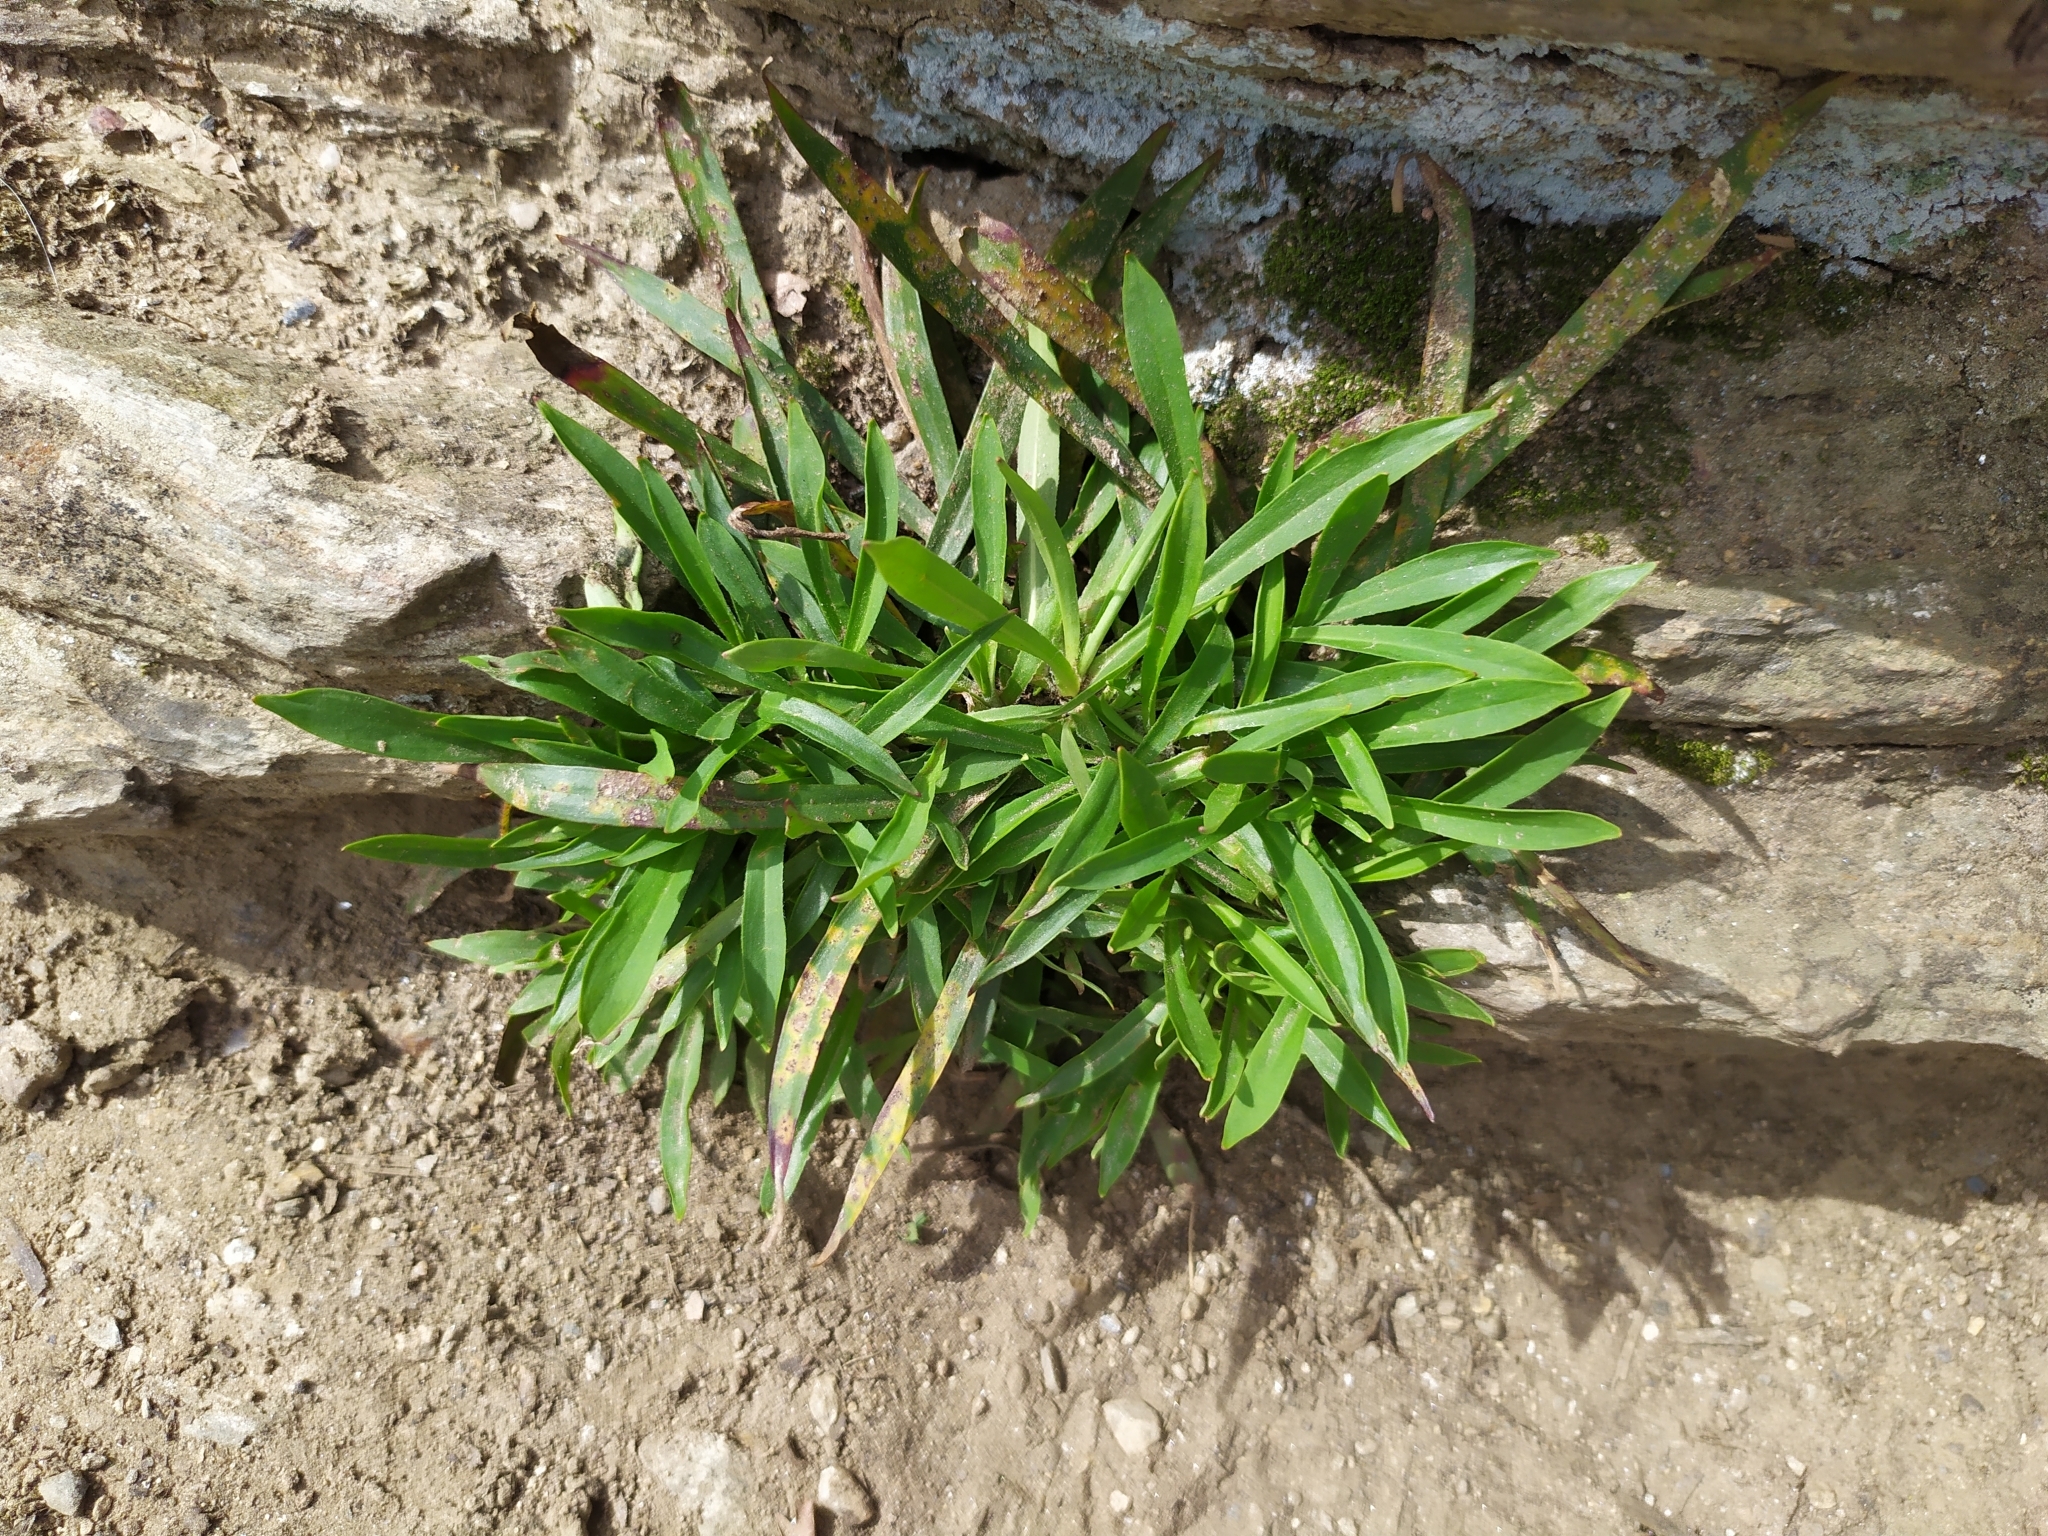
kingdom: Plantae
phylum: Tracheophyta
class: Magnoliopsida
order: Caryophyllales
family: Caryophyllaceae
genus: Viscaria
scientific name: Viscaria vulgaris
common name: Clammy campion
